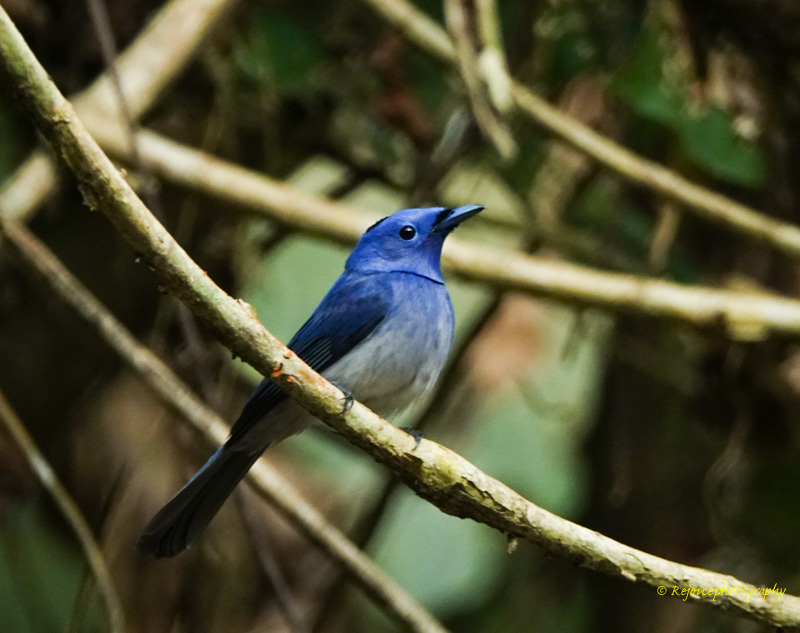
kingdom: Animalia
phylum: Chordata
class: Aves
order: Passeriformes
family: Monarchidae
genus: Hypothymis
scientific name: Hypothymis azurea
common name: Black-naped monarch
